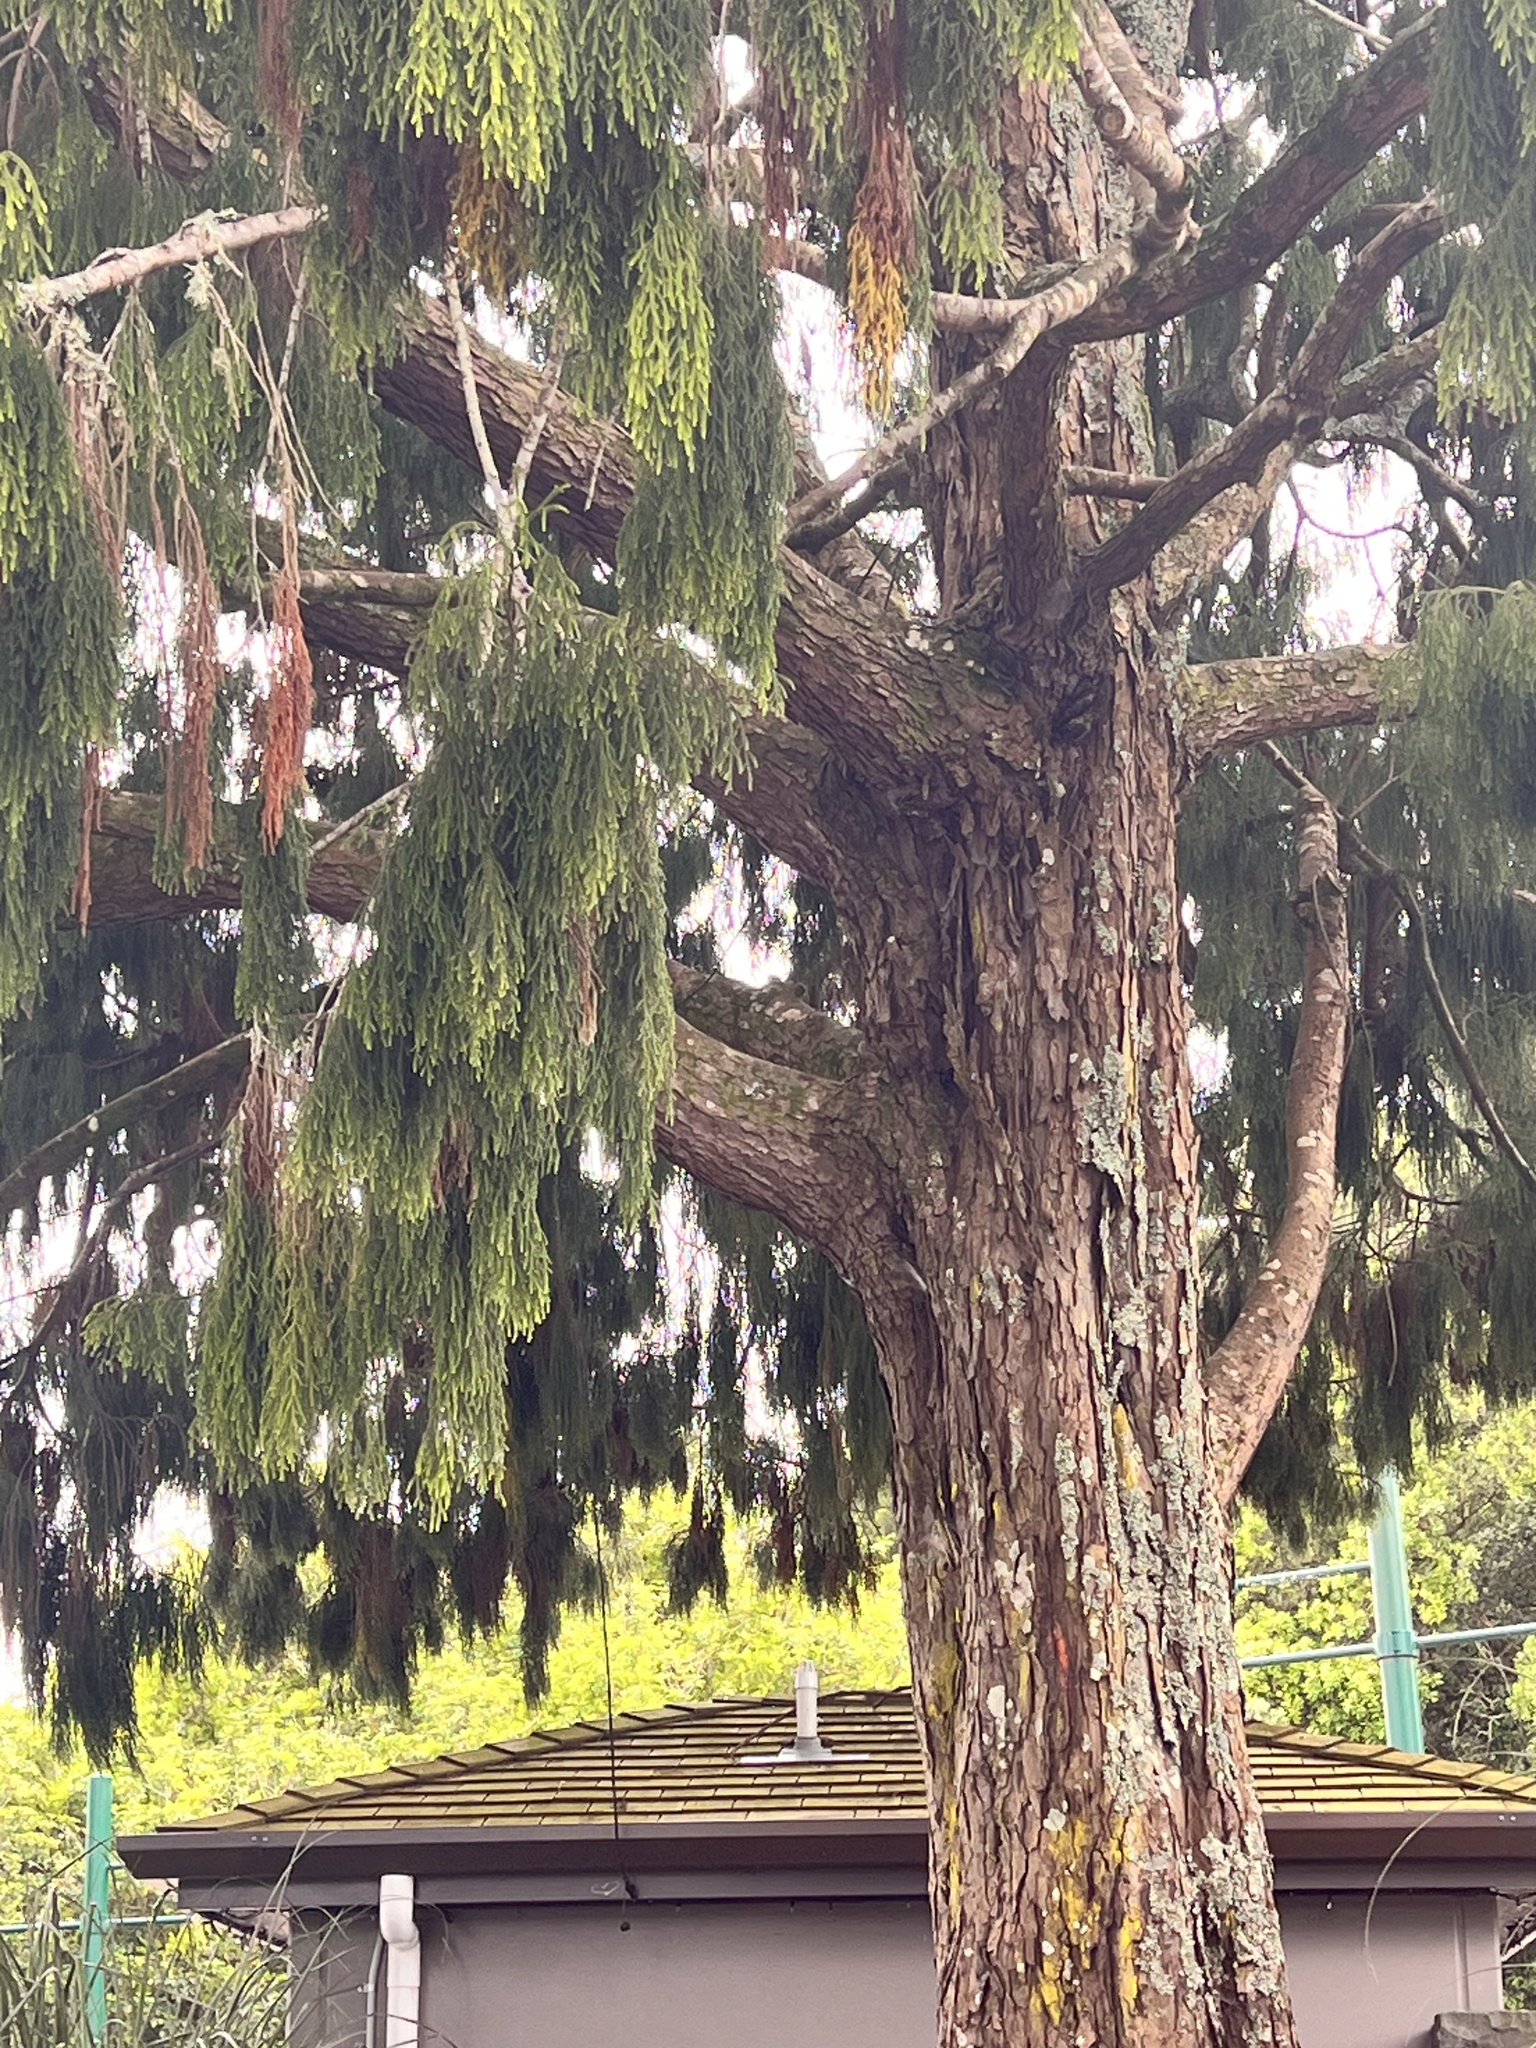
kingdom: Plantae
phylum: Tracheophyta
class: Pinopsida
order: Pinales
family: Podocarpaceae
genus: Dacrydium
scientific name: Dacrydium cupressinum
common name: Red pine
